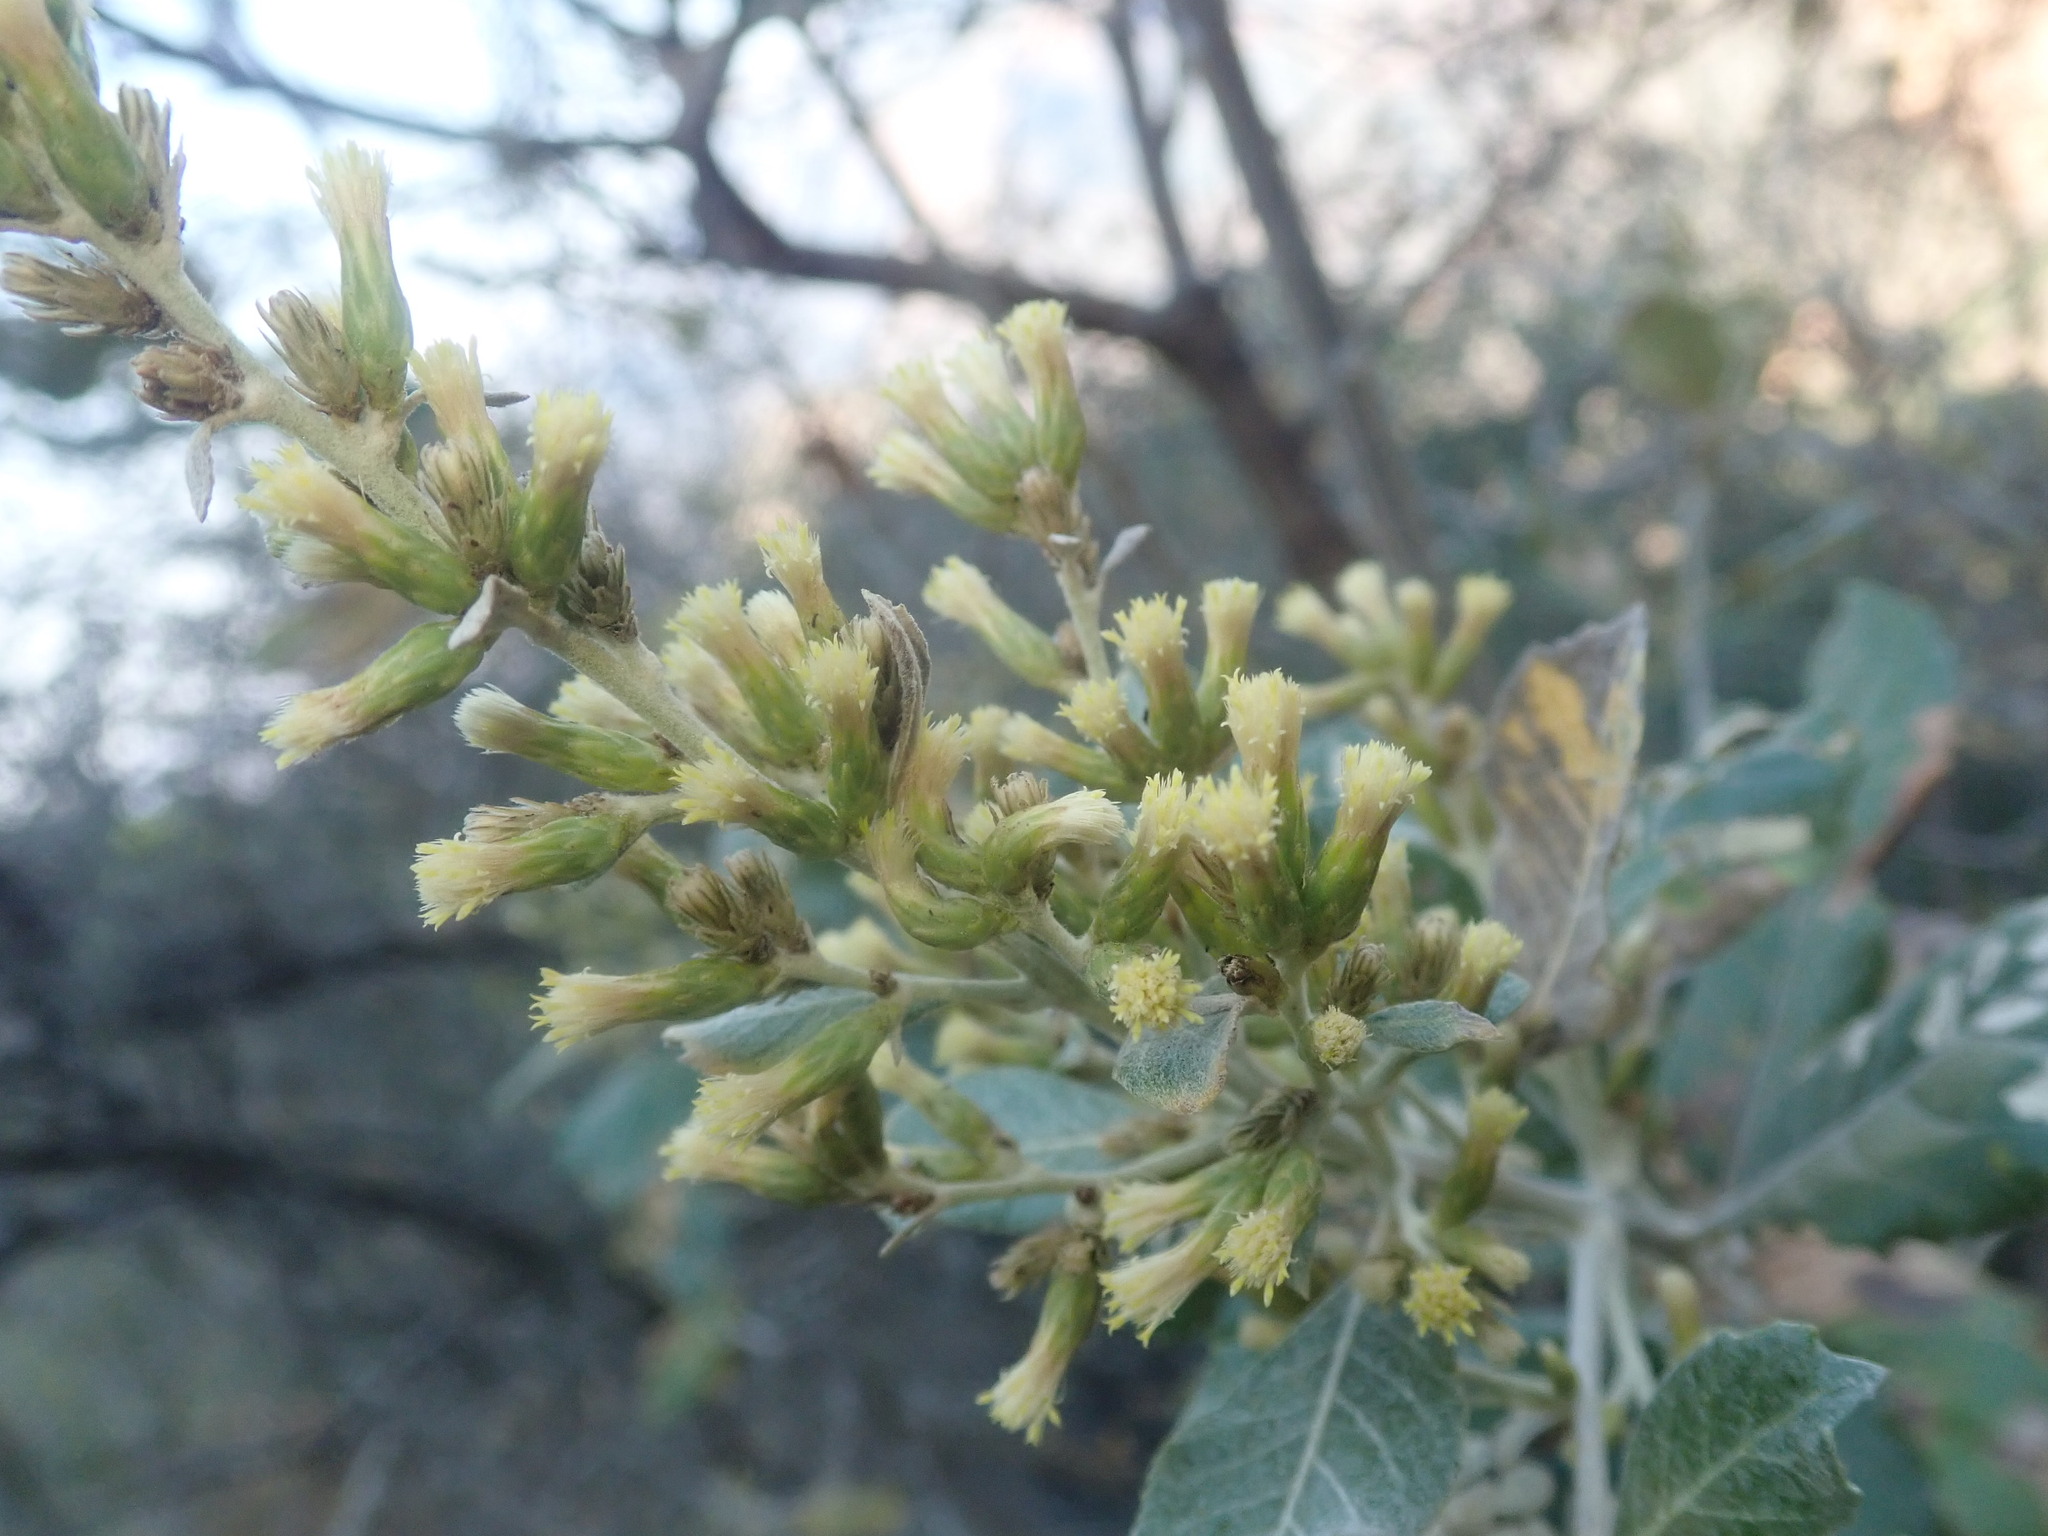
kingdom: Plantae
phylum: Tracheophyta
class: Magnoliopsida
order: Asterales
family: Asteraceae
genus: Brachylaena
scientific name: Brachylaena discolor
